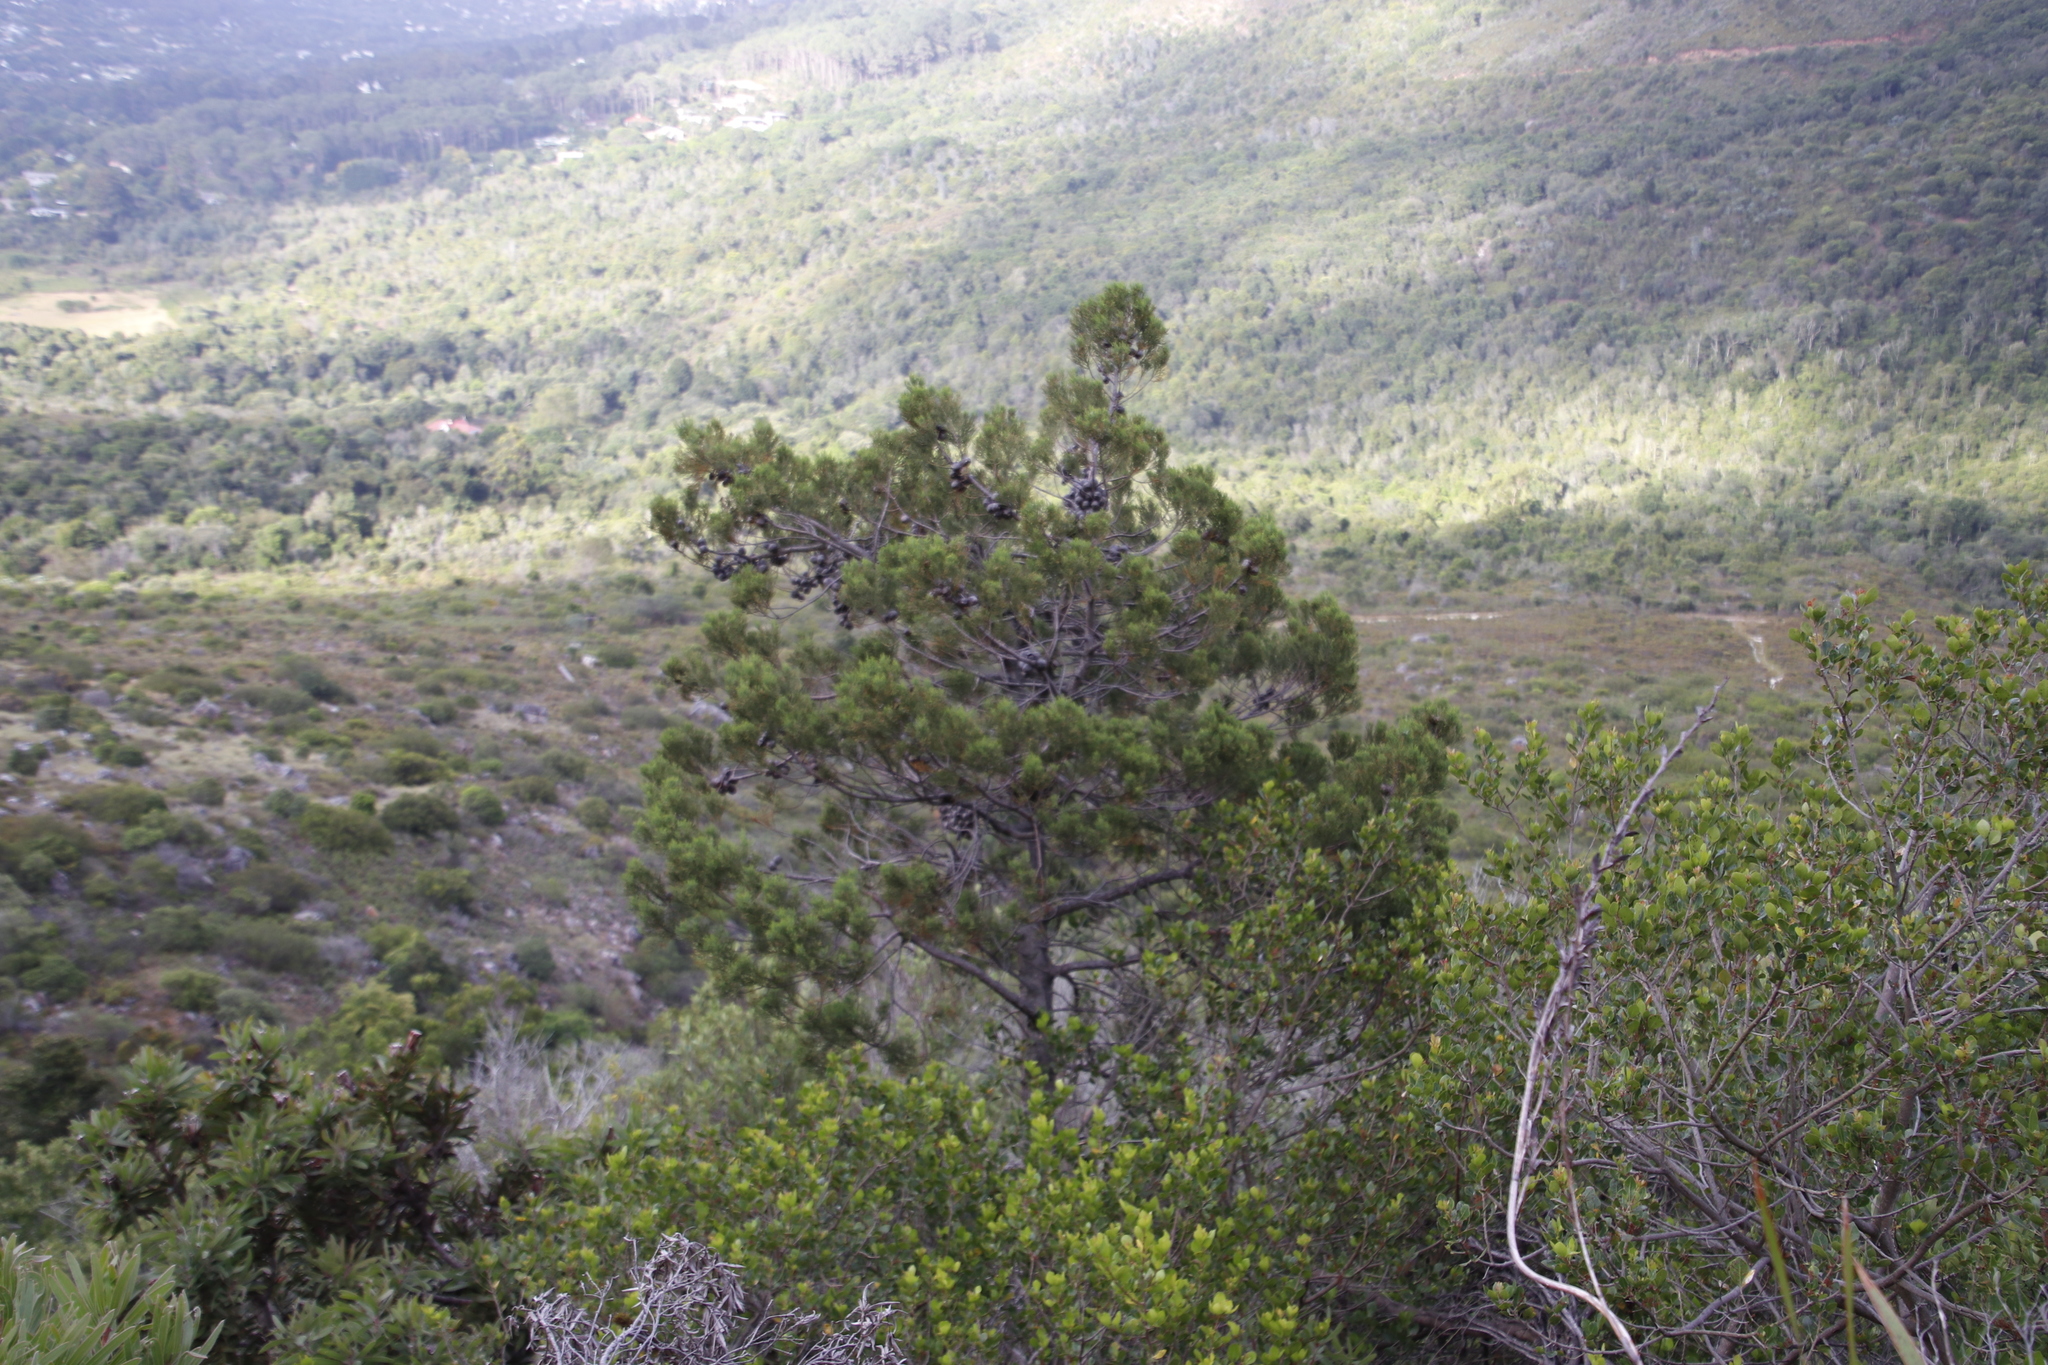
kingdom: Plantae
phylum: Tracheophyta
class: Pinopsida
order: Pinales
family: Cupressaceae
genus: Widdringtonia
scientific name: Widdringtonia nodiflora
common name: Cape cypress
